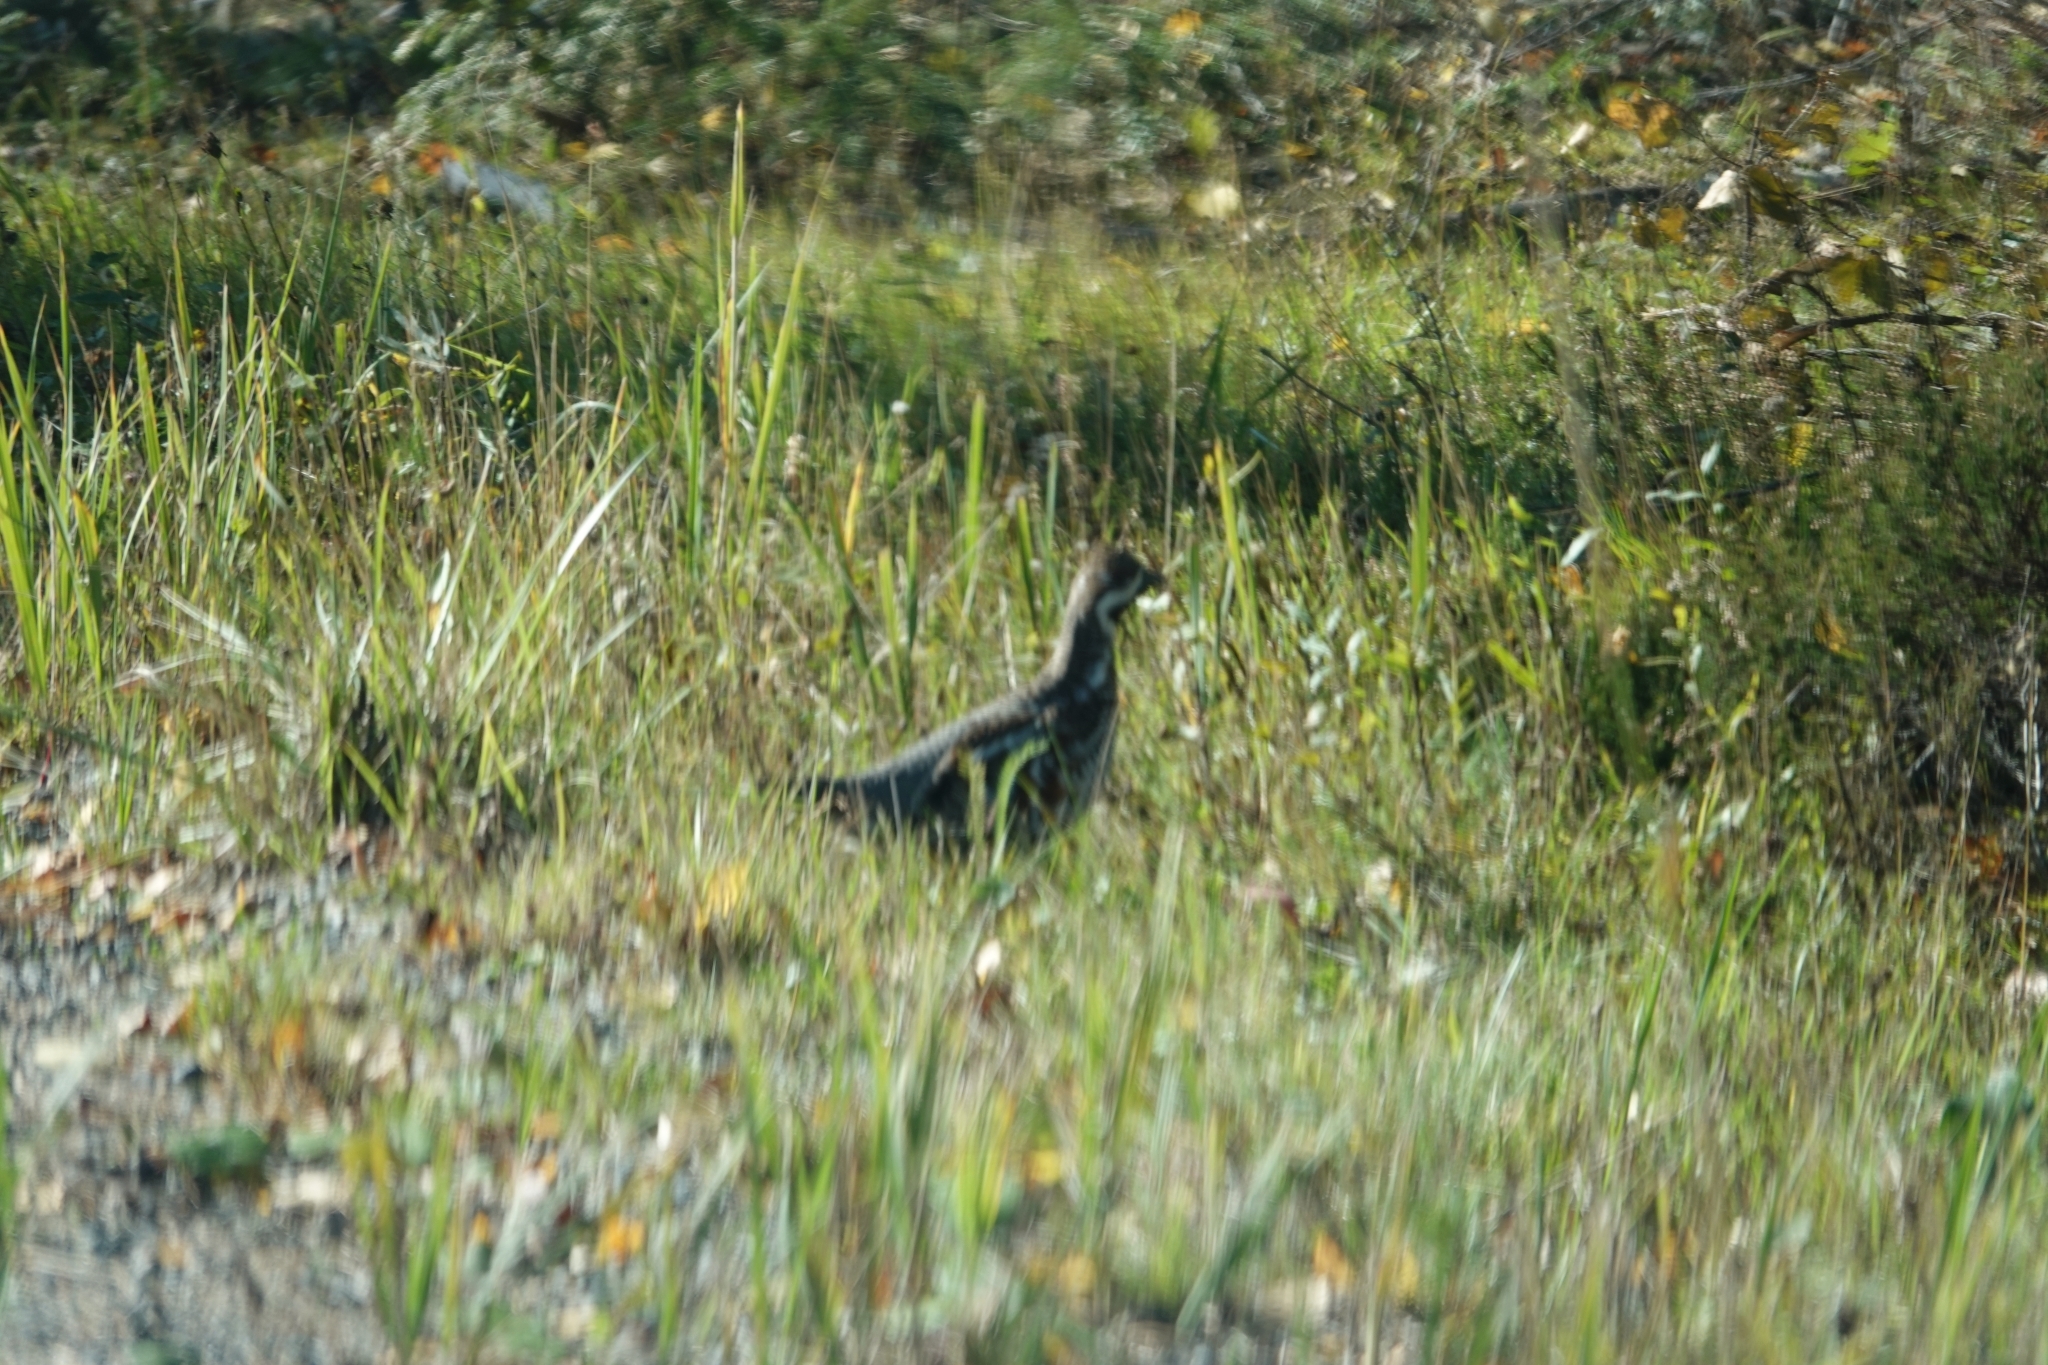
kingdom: Animalia
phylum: Chordata
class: Aves
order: Galliformes
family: Phasianidae
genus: Tetrastes
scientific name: Tetrastes bonasia
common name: Hazel grouse
